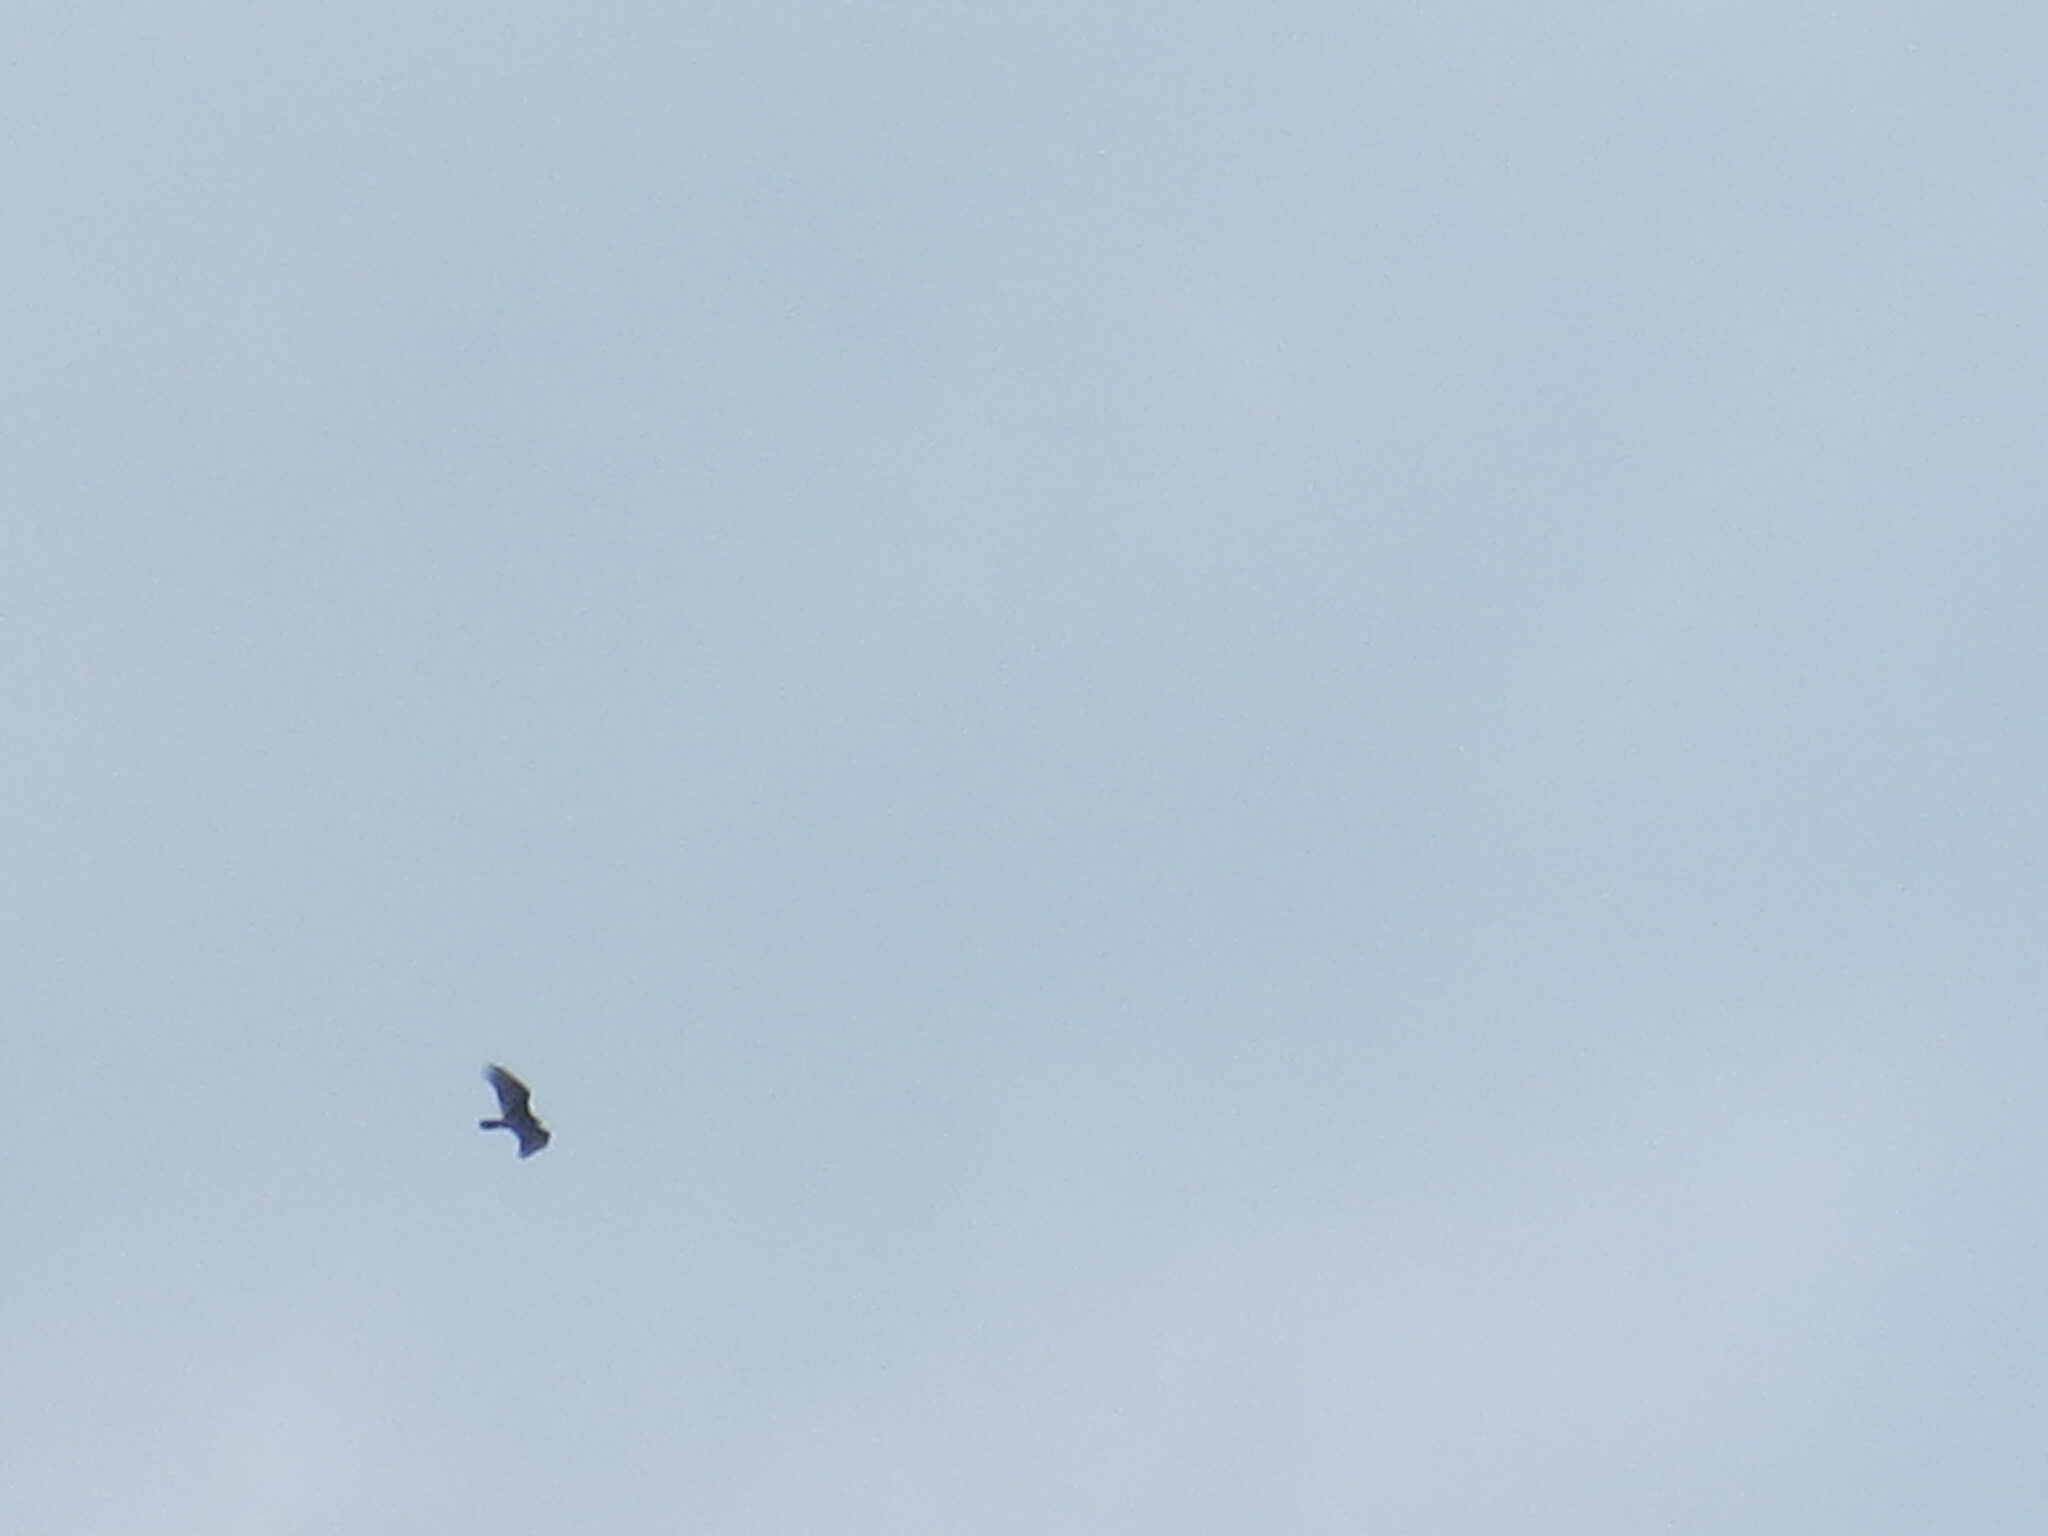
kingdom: Animalia
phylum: Chordata
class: Aves
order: Accipitriformes
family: Cathartidae
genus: Cathartes
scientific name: Cathartes aura
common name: Turkey vulture
